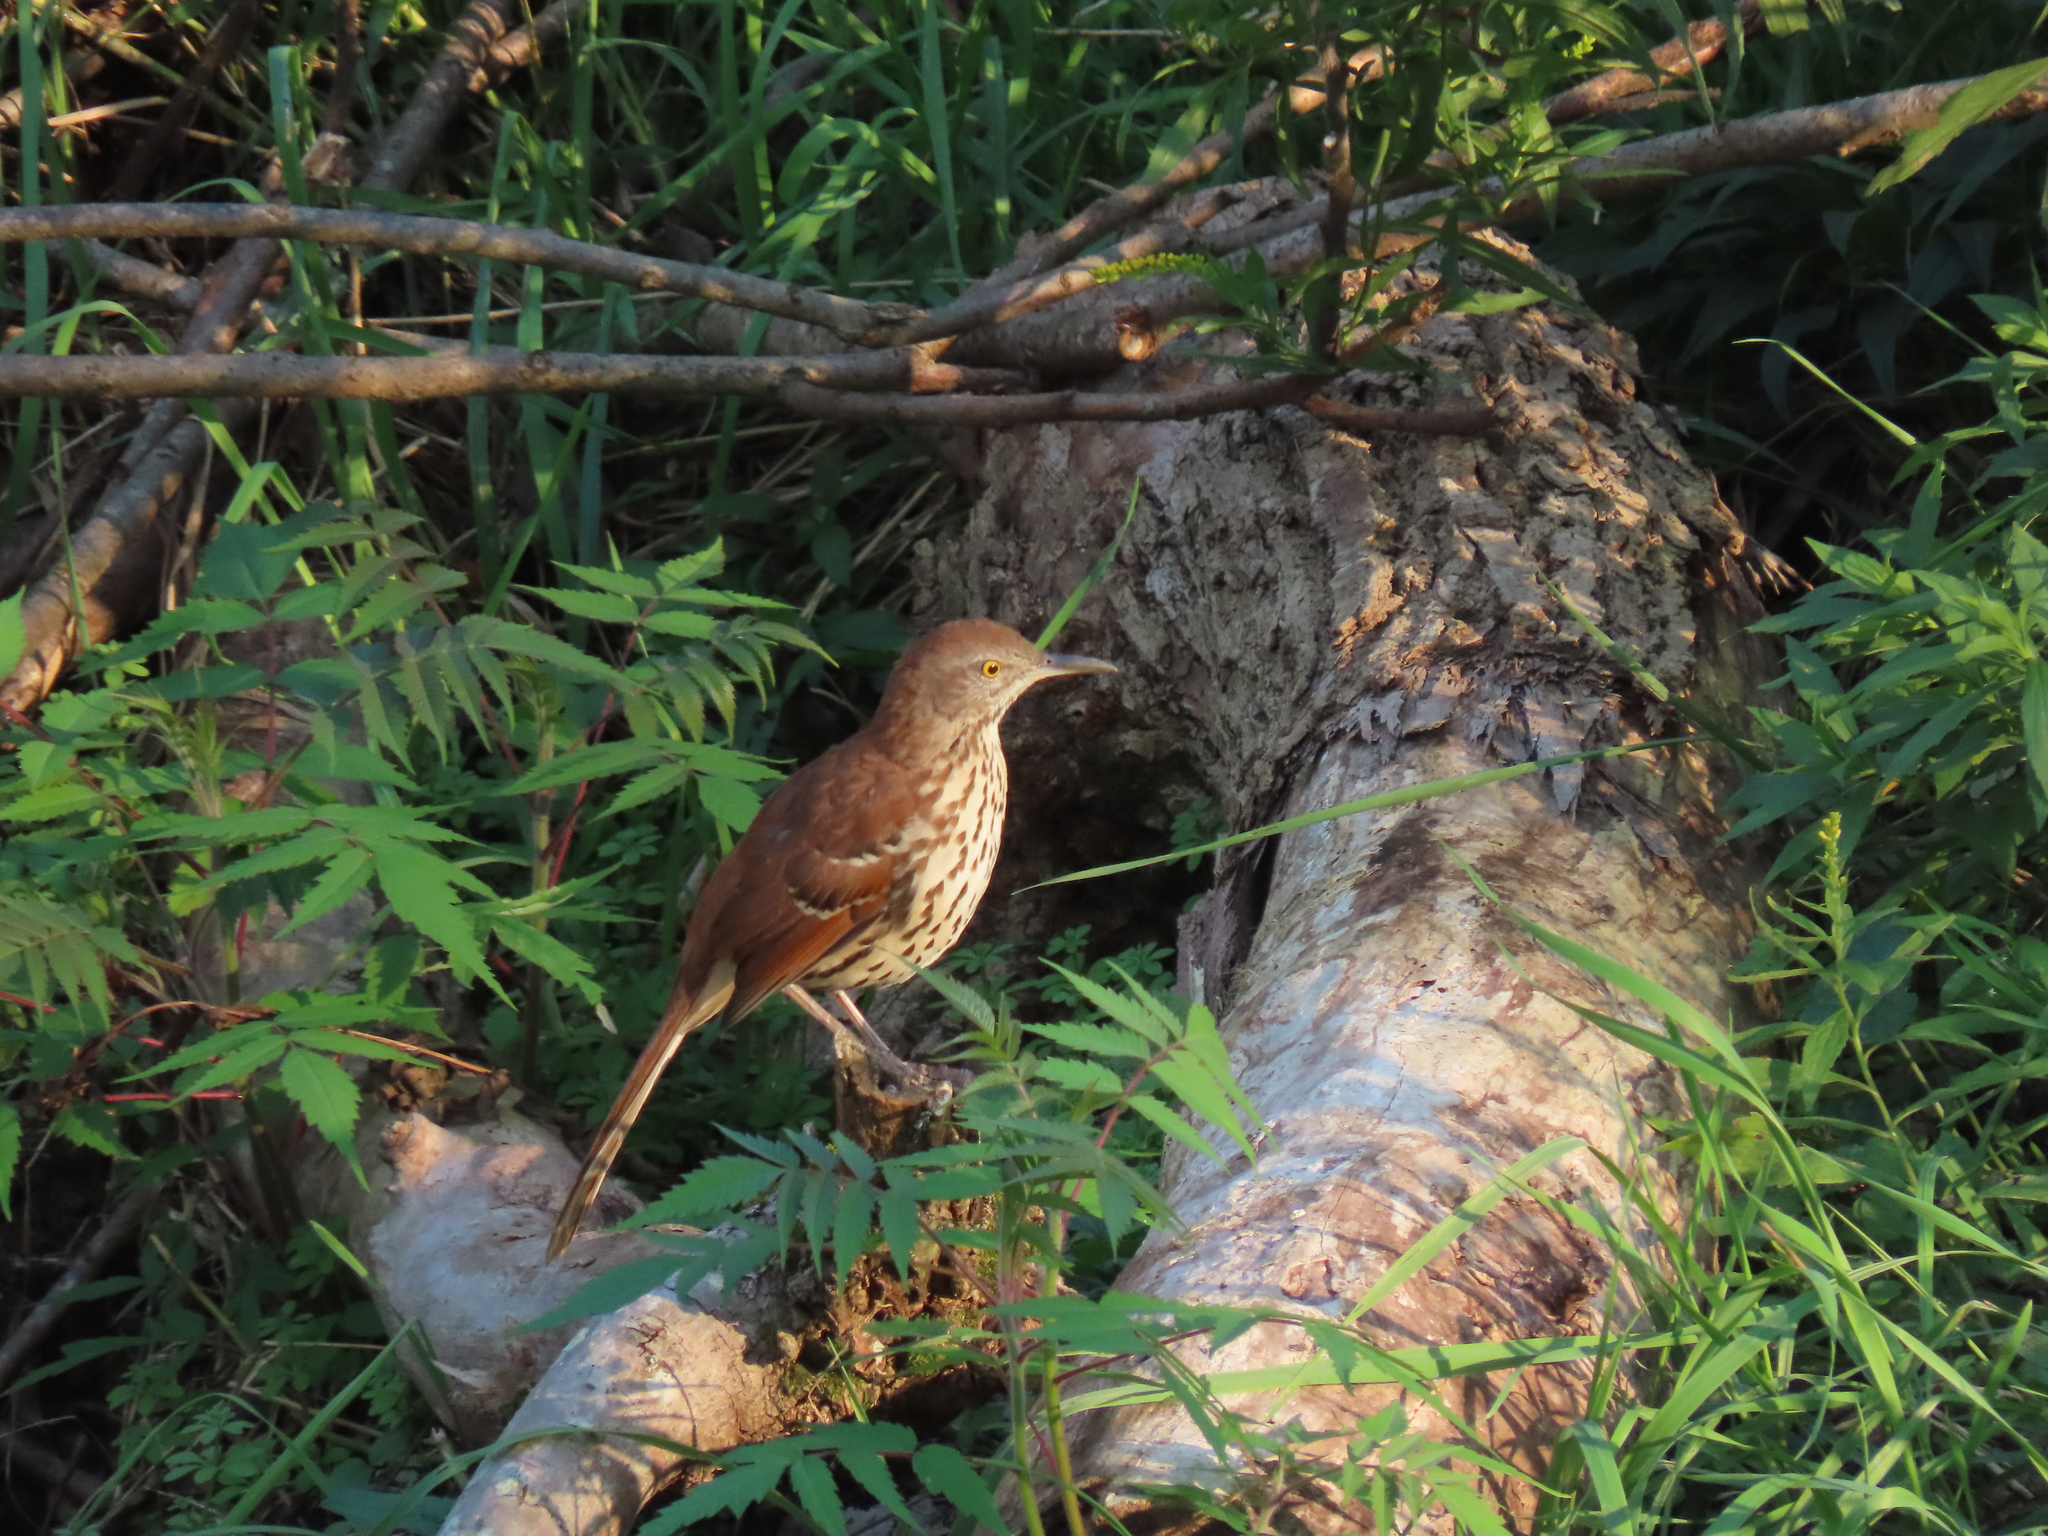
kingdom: Animalia
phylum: Chordata
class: Aves
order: Passeriformes
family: Mimidae
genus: Toxostoma
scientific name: Toxostoma rufum
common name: Brown thrasher
